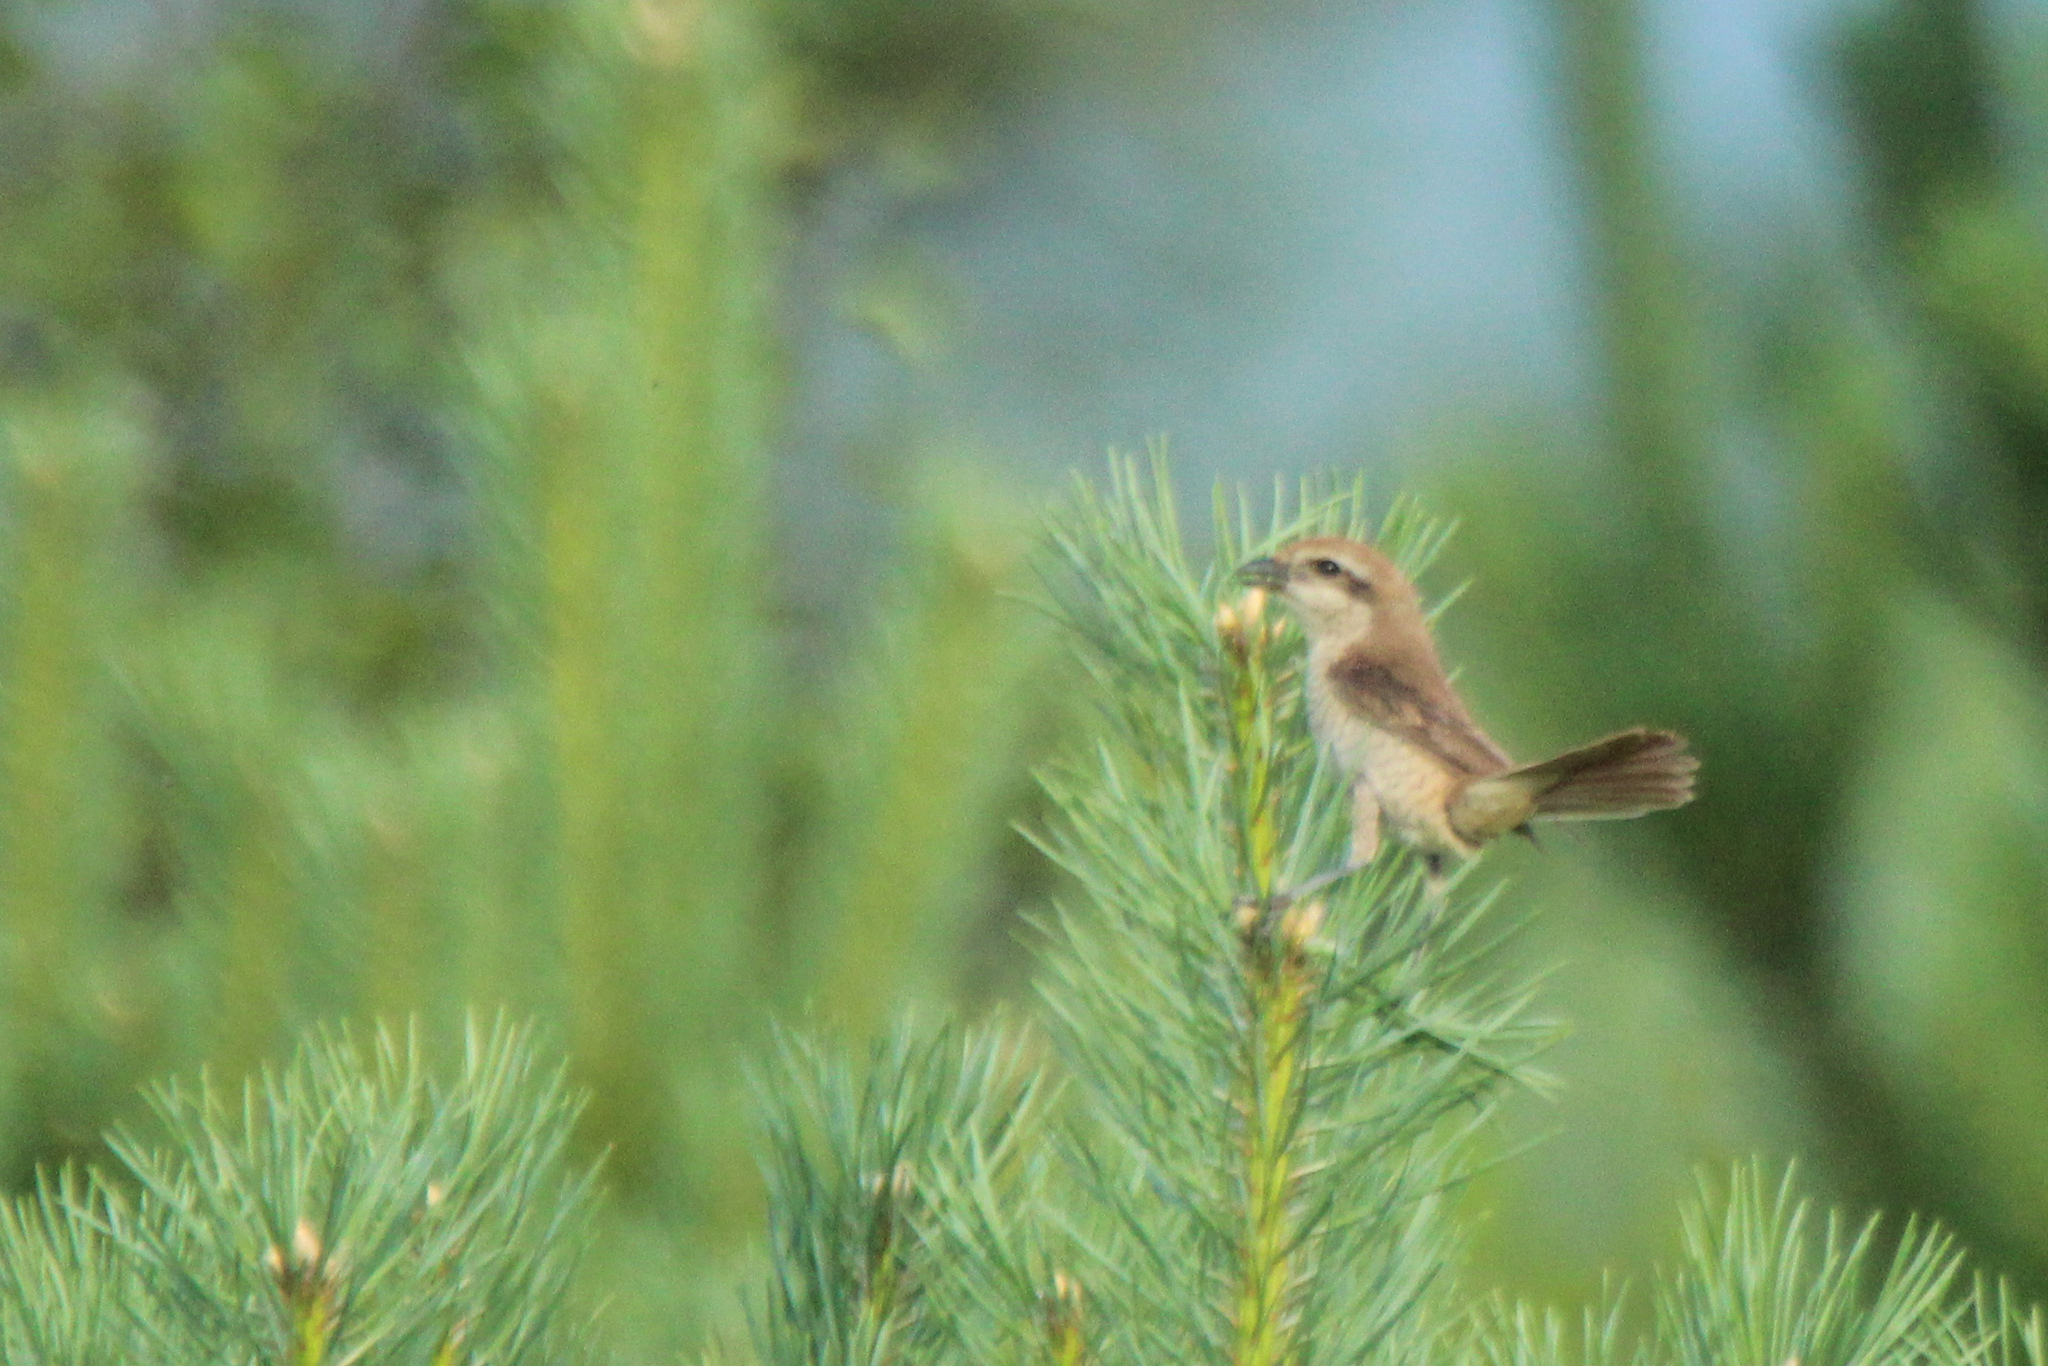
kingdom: Animalia
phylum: Chordata
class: Aves
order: Passeriformes
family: Laniidae
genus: Lanius
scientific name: Lanius cristatus
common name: Brown shrike
